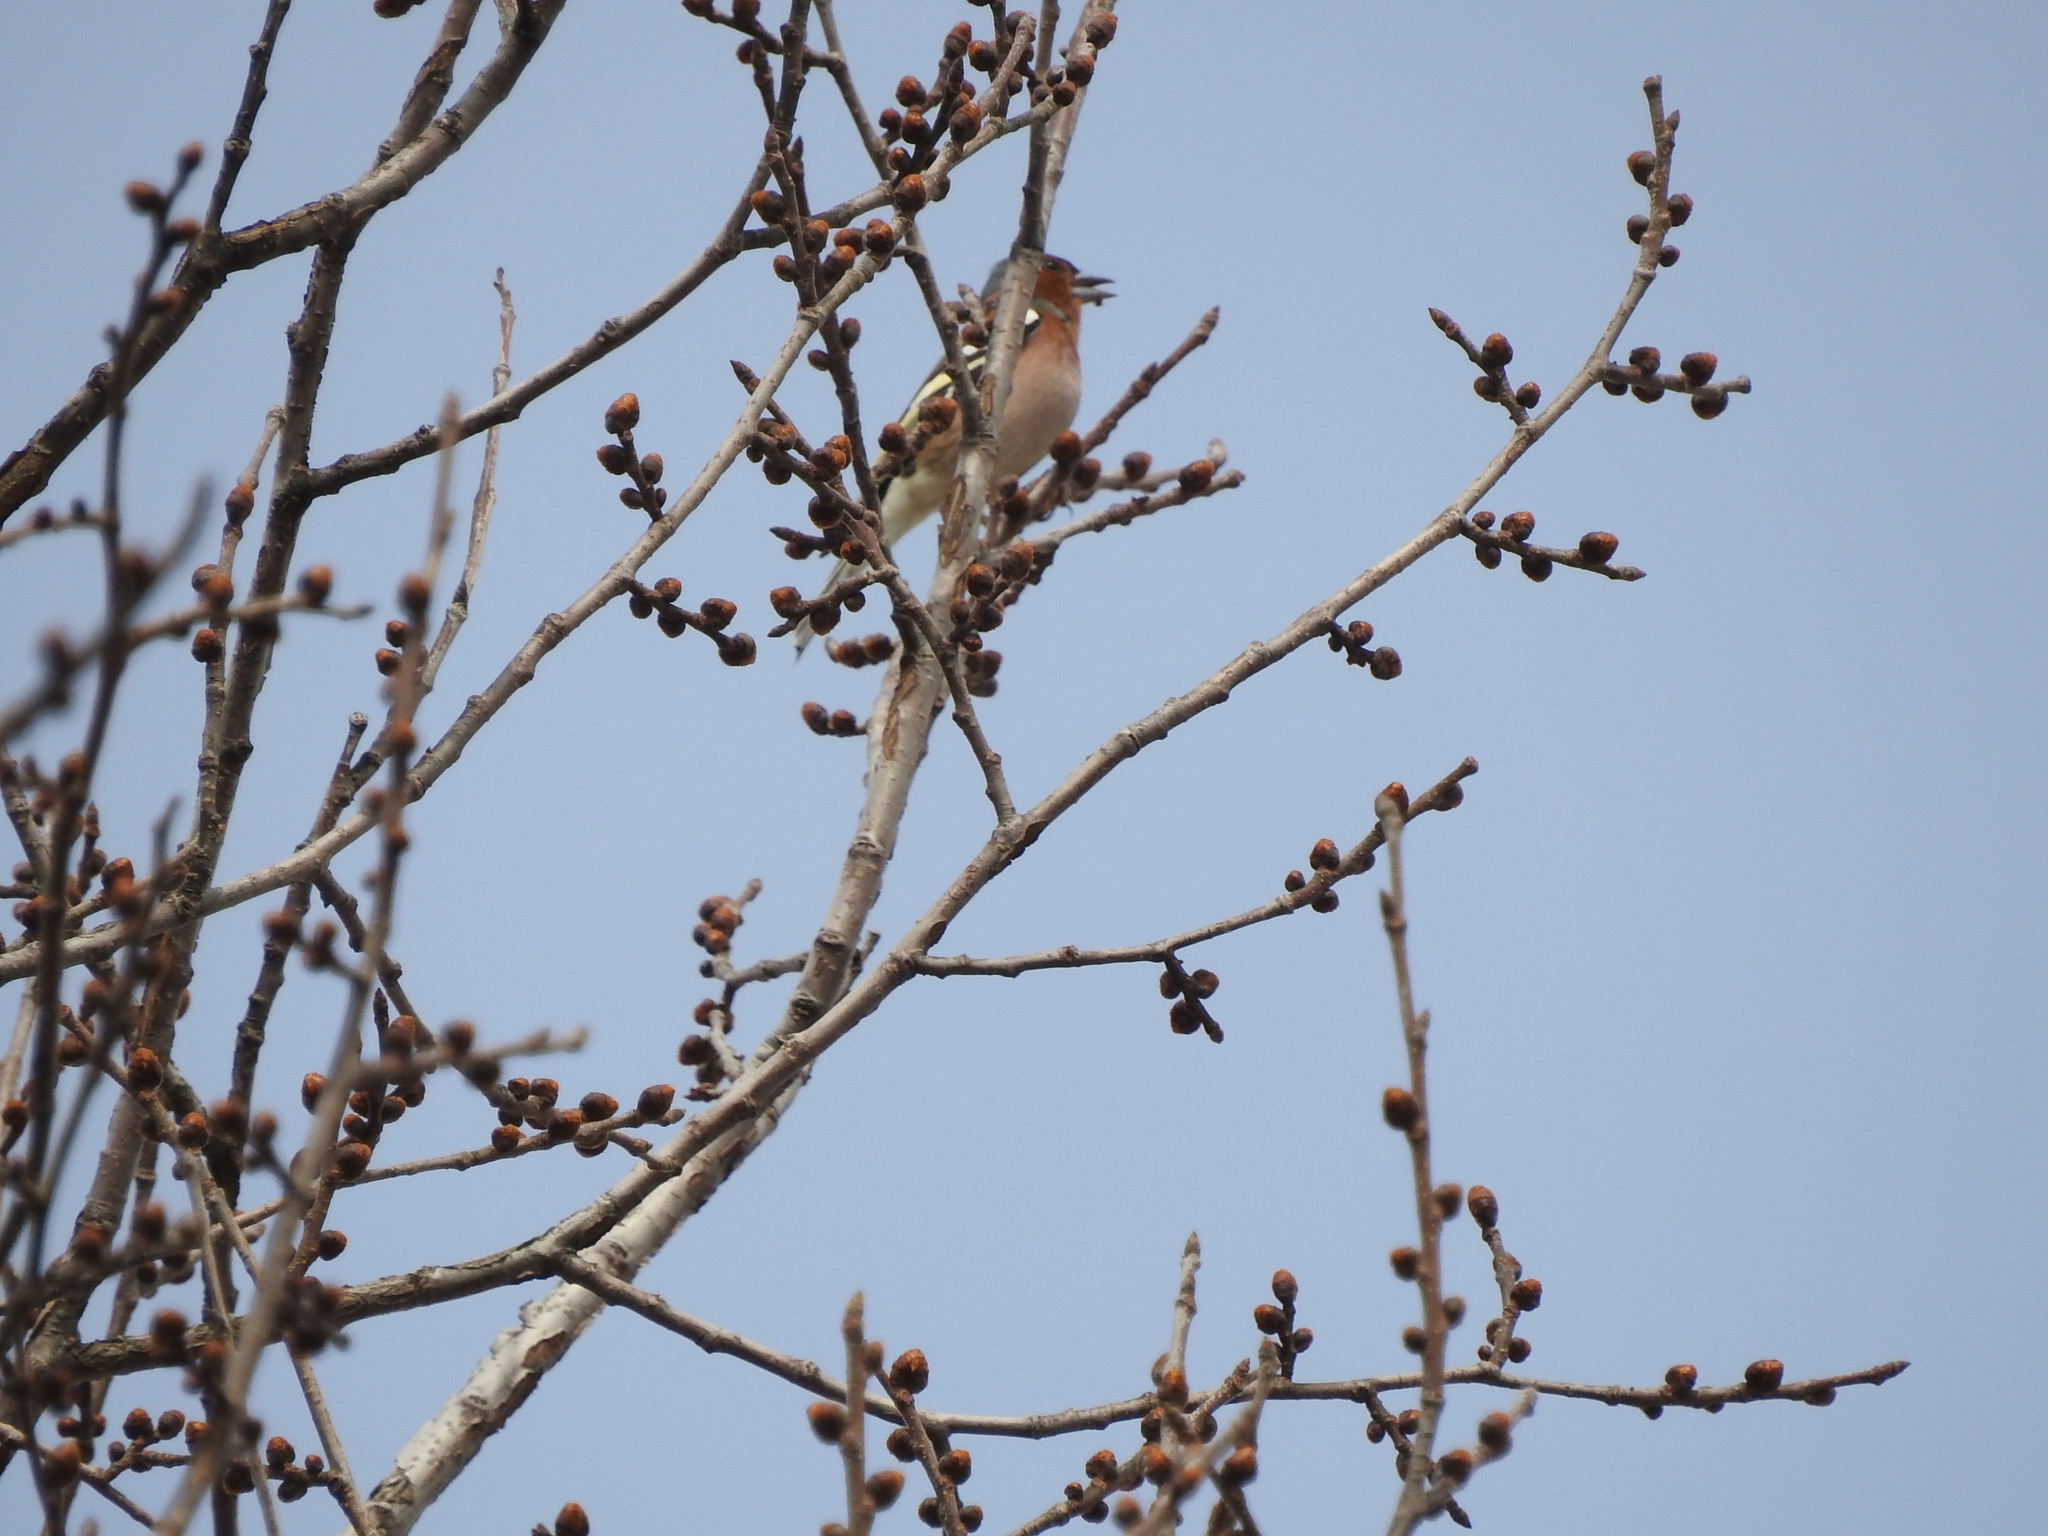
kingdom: Animalia
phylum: Chordata
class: Aves
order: Passeriformes
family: Fringillidae
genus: Fringilla
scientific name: Fringilla coelebs
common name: Common chaffinch
